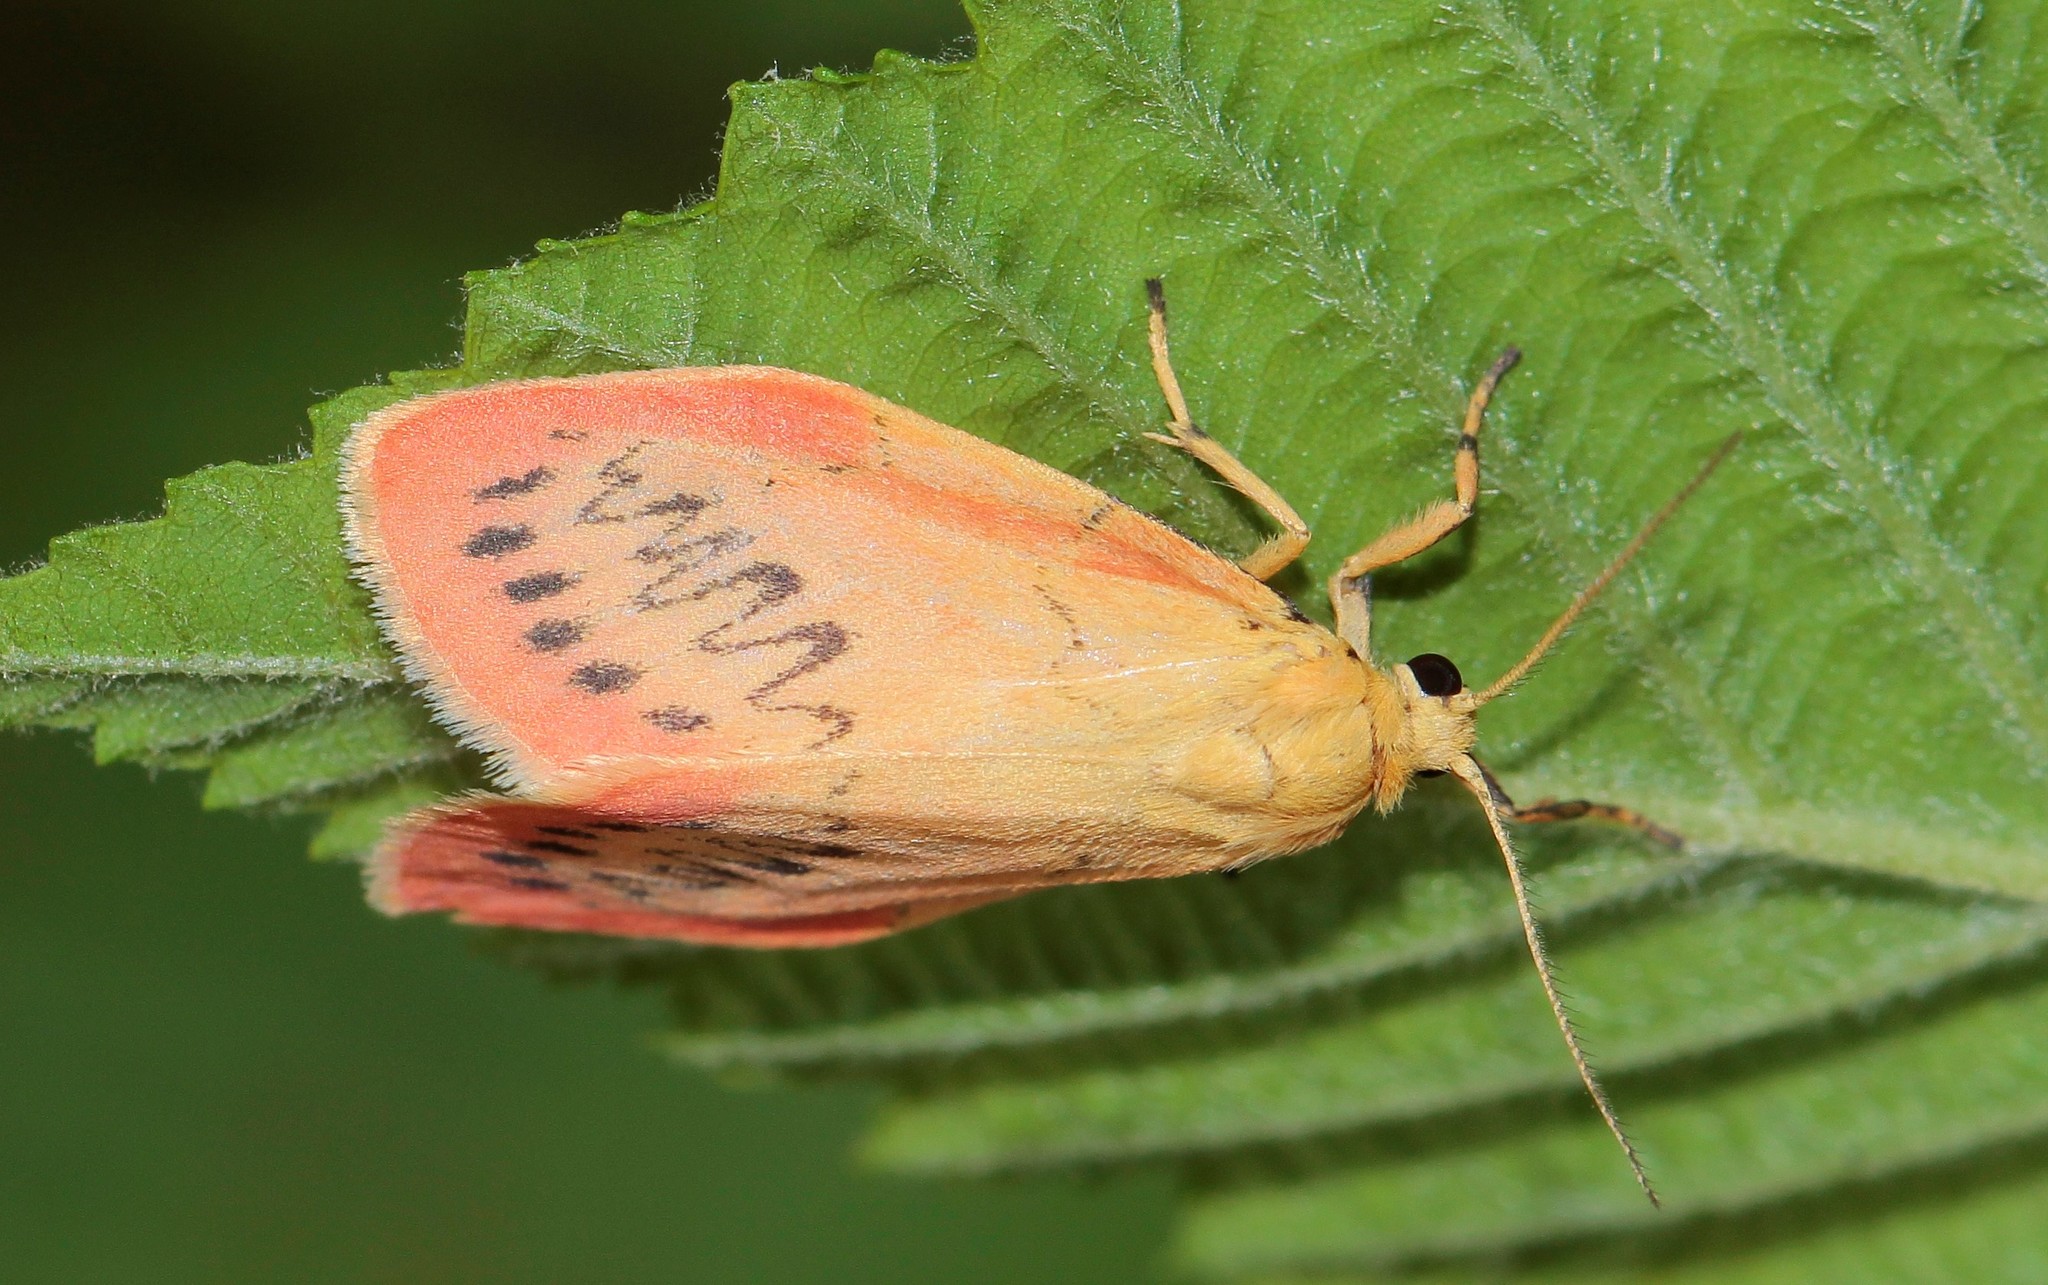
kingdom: Animalia
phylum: Arthropoda
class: Insecta
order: Lepidoptera
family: Erebidae
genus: Miltochrista
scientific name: Miltochrista miniata
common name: Rosy footman
